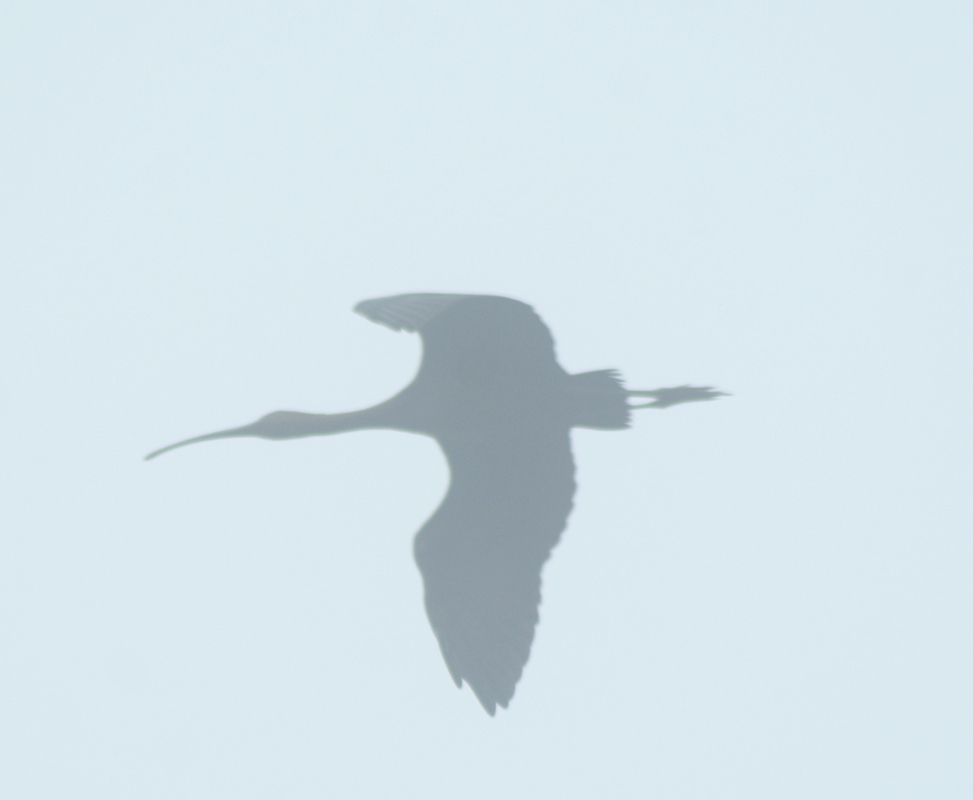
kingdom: Animalia
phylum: Chordata
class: Aves
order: Pelecaniformes
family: Threskiornithidae
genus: Plegadis
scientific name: Plegadis chihi
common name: White-faced ibis
